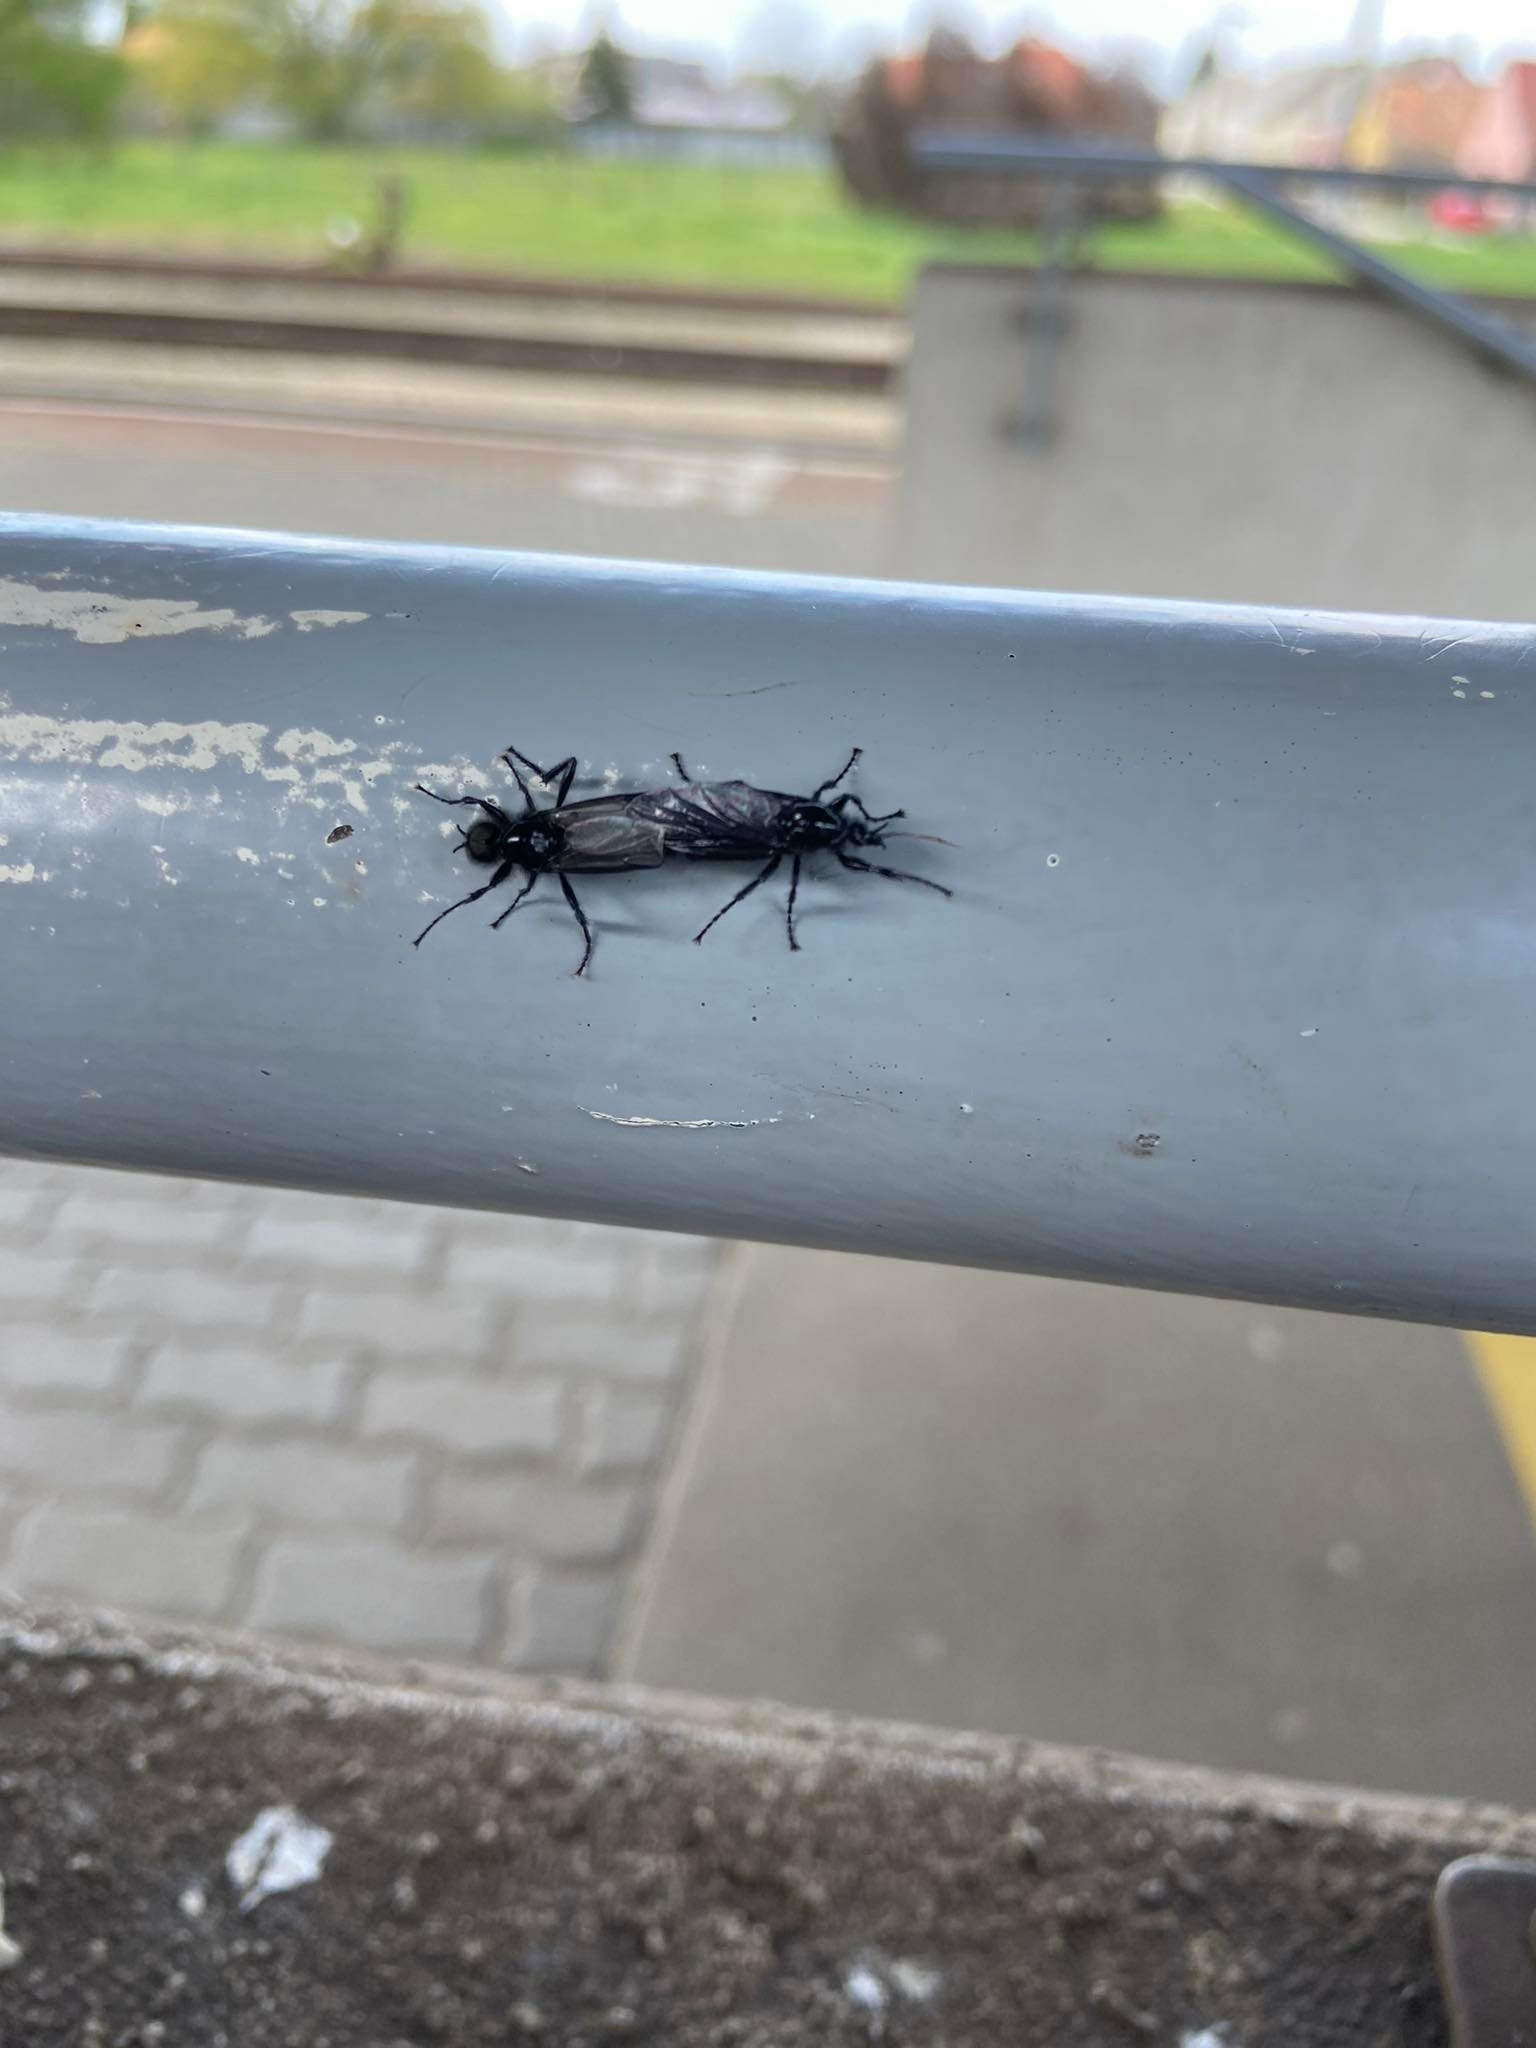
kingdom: Animalia
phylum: Arthropoda
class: Insecta
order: Diptera
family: Bibionidae
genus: Bibio
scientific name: Bibio marci
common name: St marks fly
